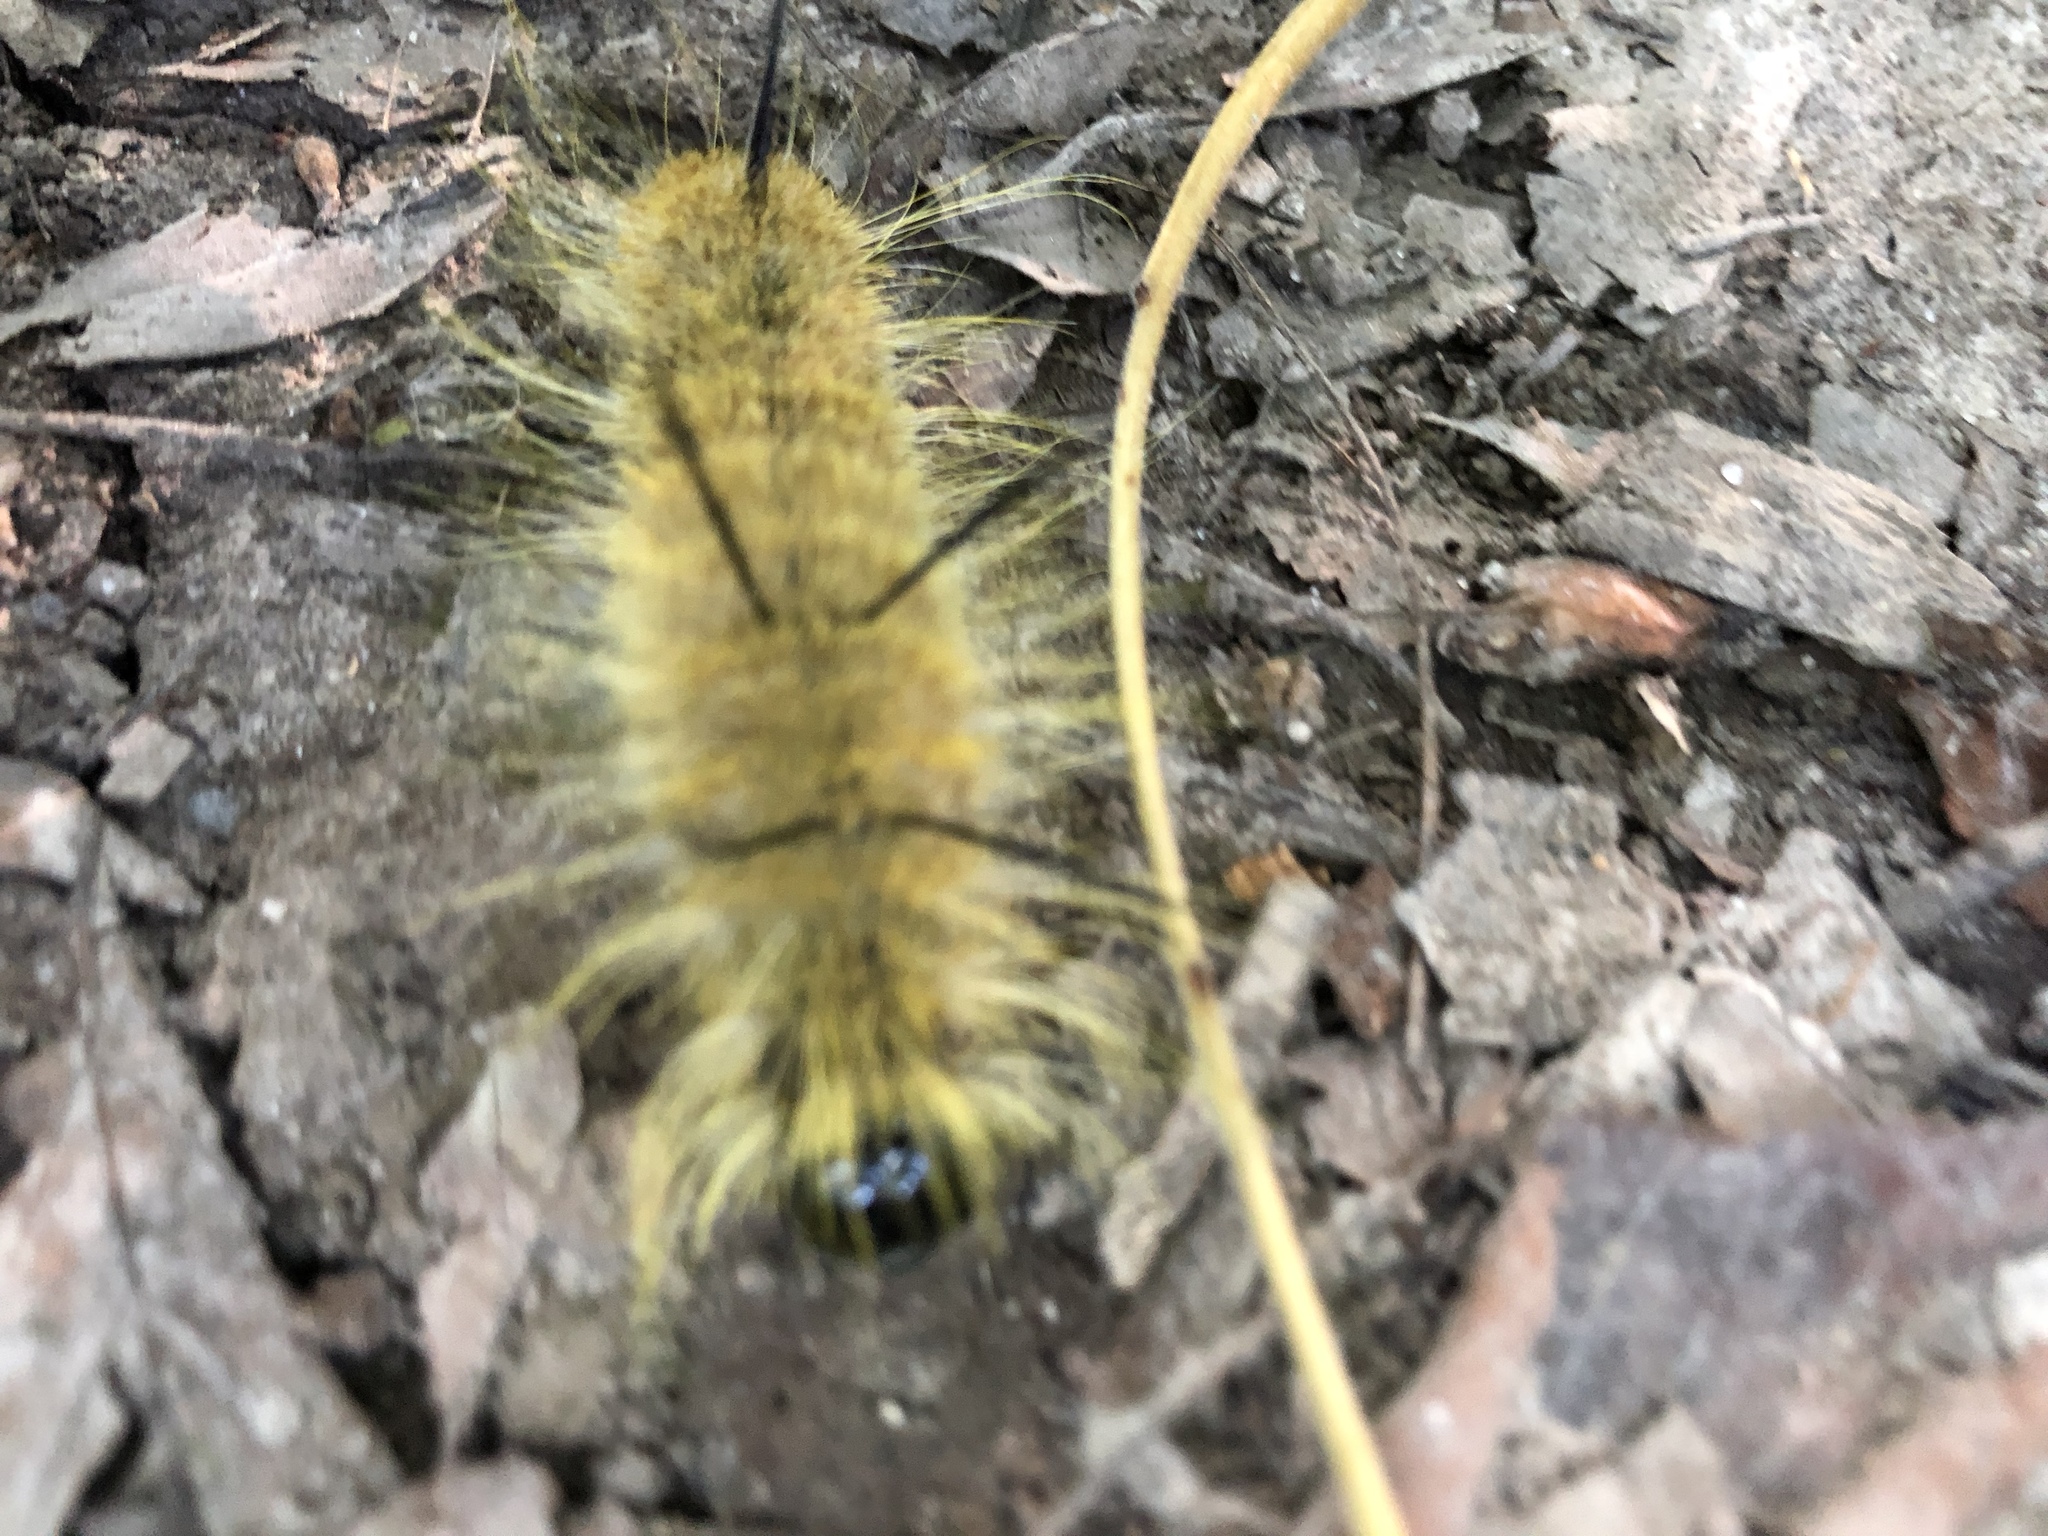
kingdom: Animalia
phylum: Arthropoda
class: Insecta
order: Lepidoptera
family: Noctuidae
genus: Acronicta
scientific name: Acronicta americana
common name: American dagger
